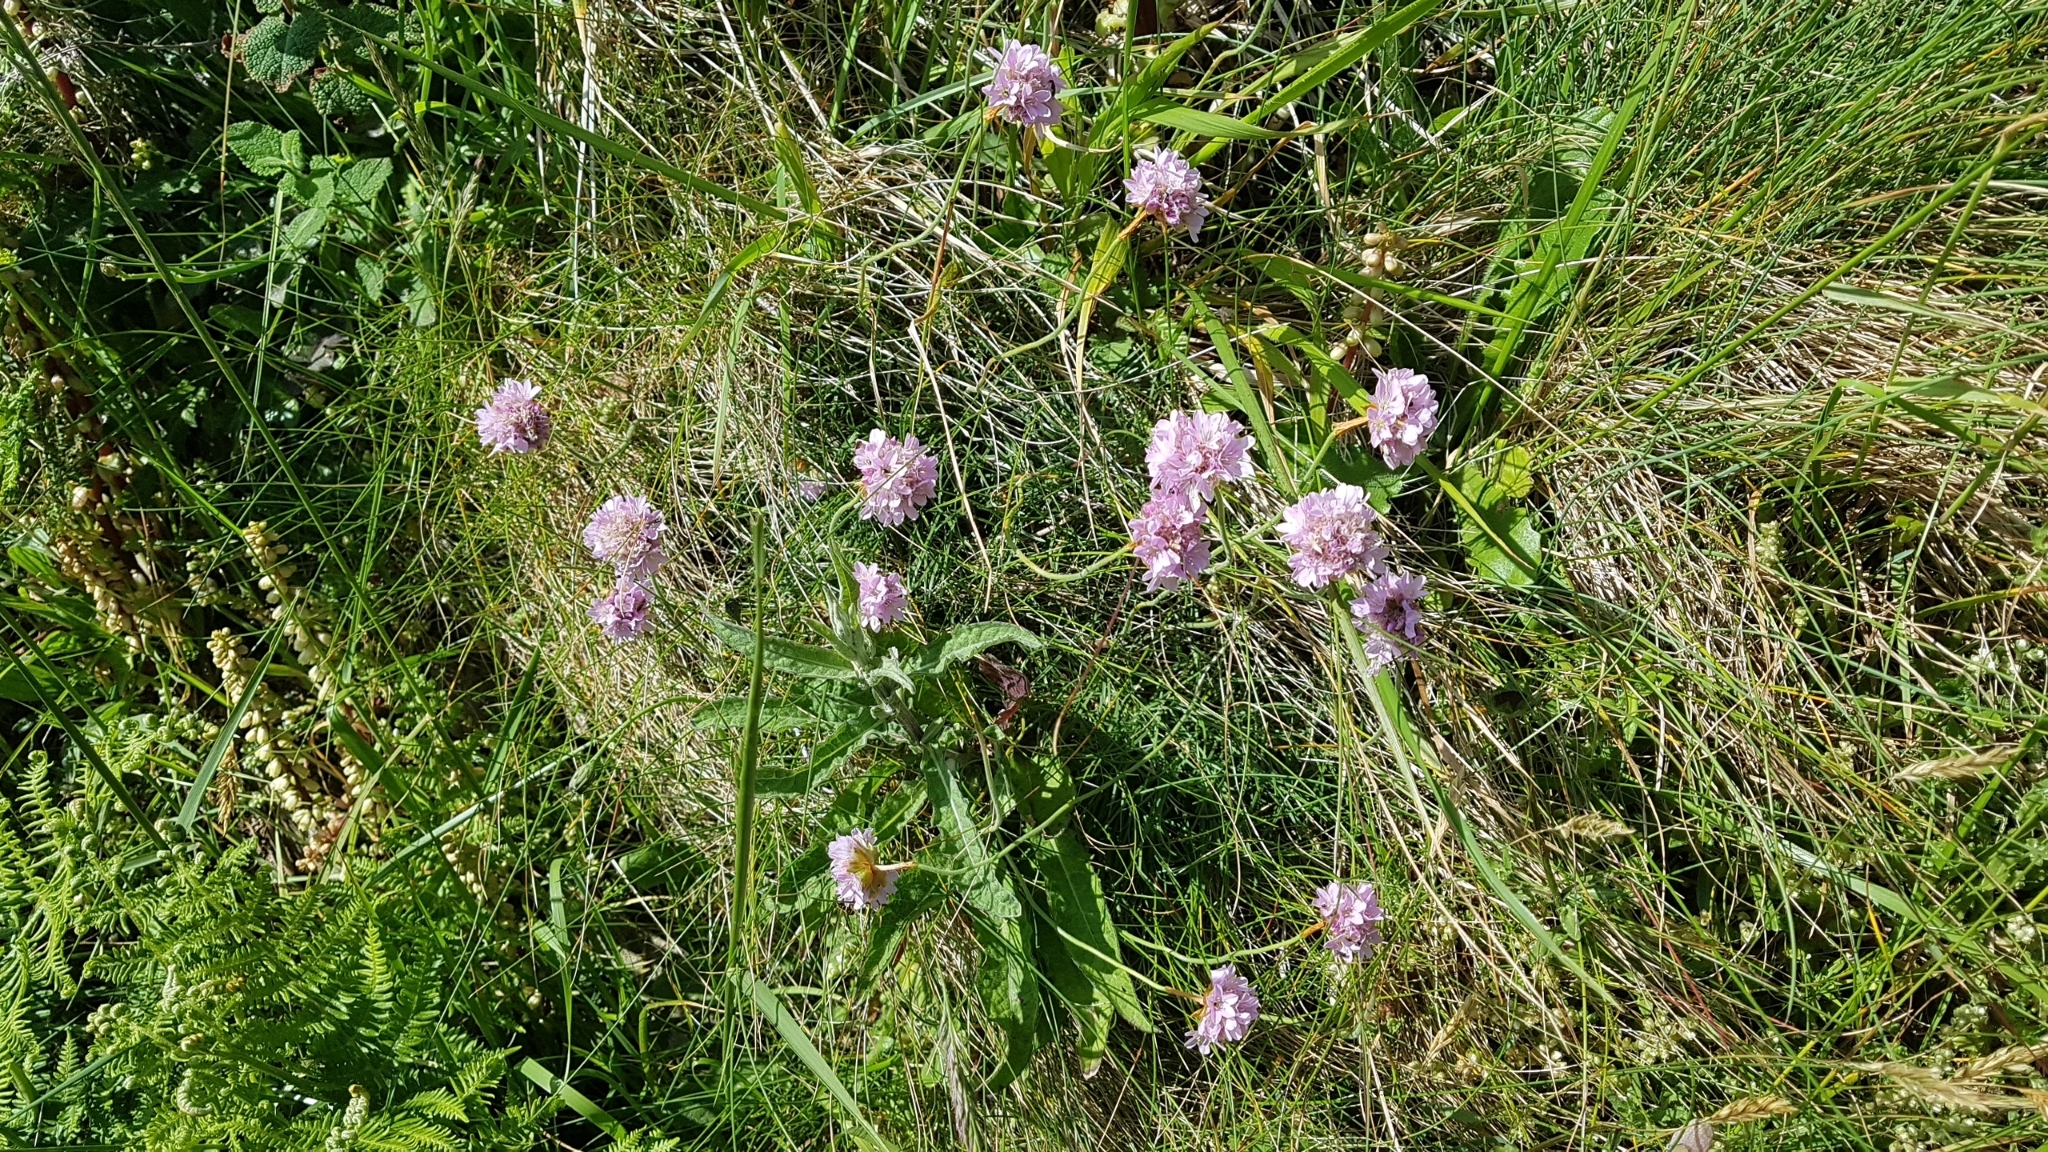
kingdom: Plantae
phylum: Tracheophyta
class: Magnoliopsida
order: Caryophyllales
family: Plumbaginaceae
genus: Armeria
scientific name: Armeria maritima
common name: Thrift
